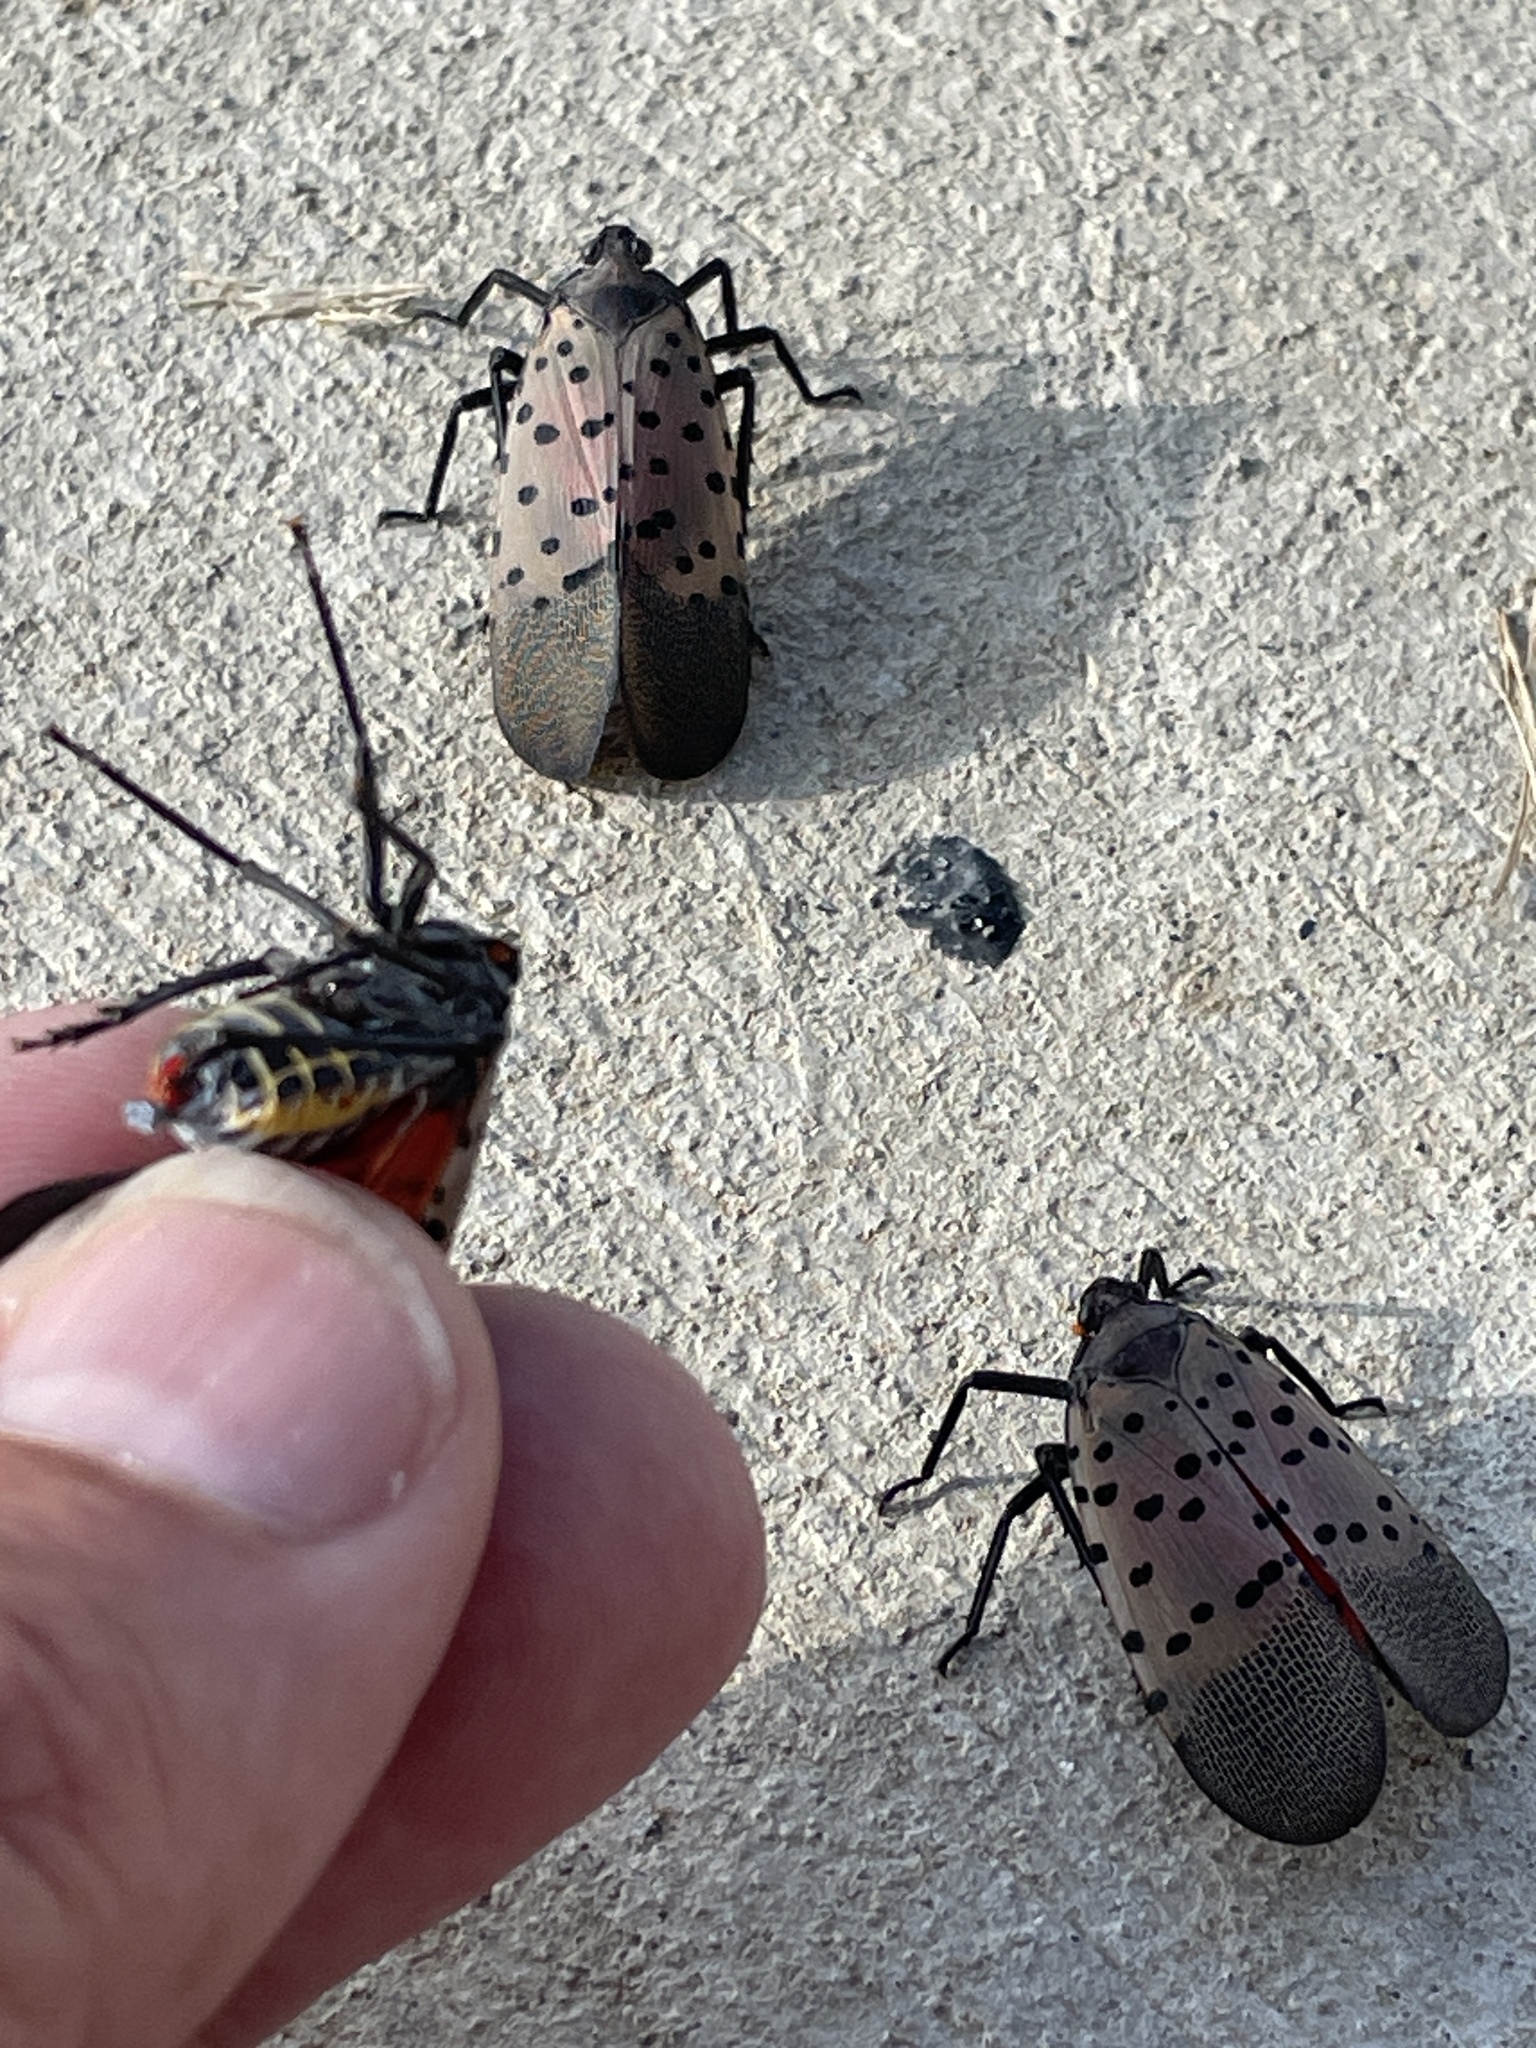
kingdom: Animalia
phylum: Arthropoda
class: Insecta
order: Hemiptera
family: Fulgoridae
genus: Lycorma
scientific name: Lycorma delicatula
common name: Spotted lanternfly
